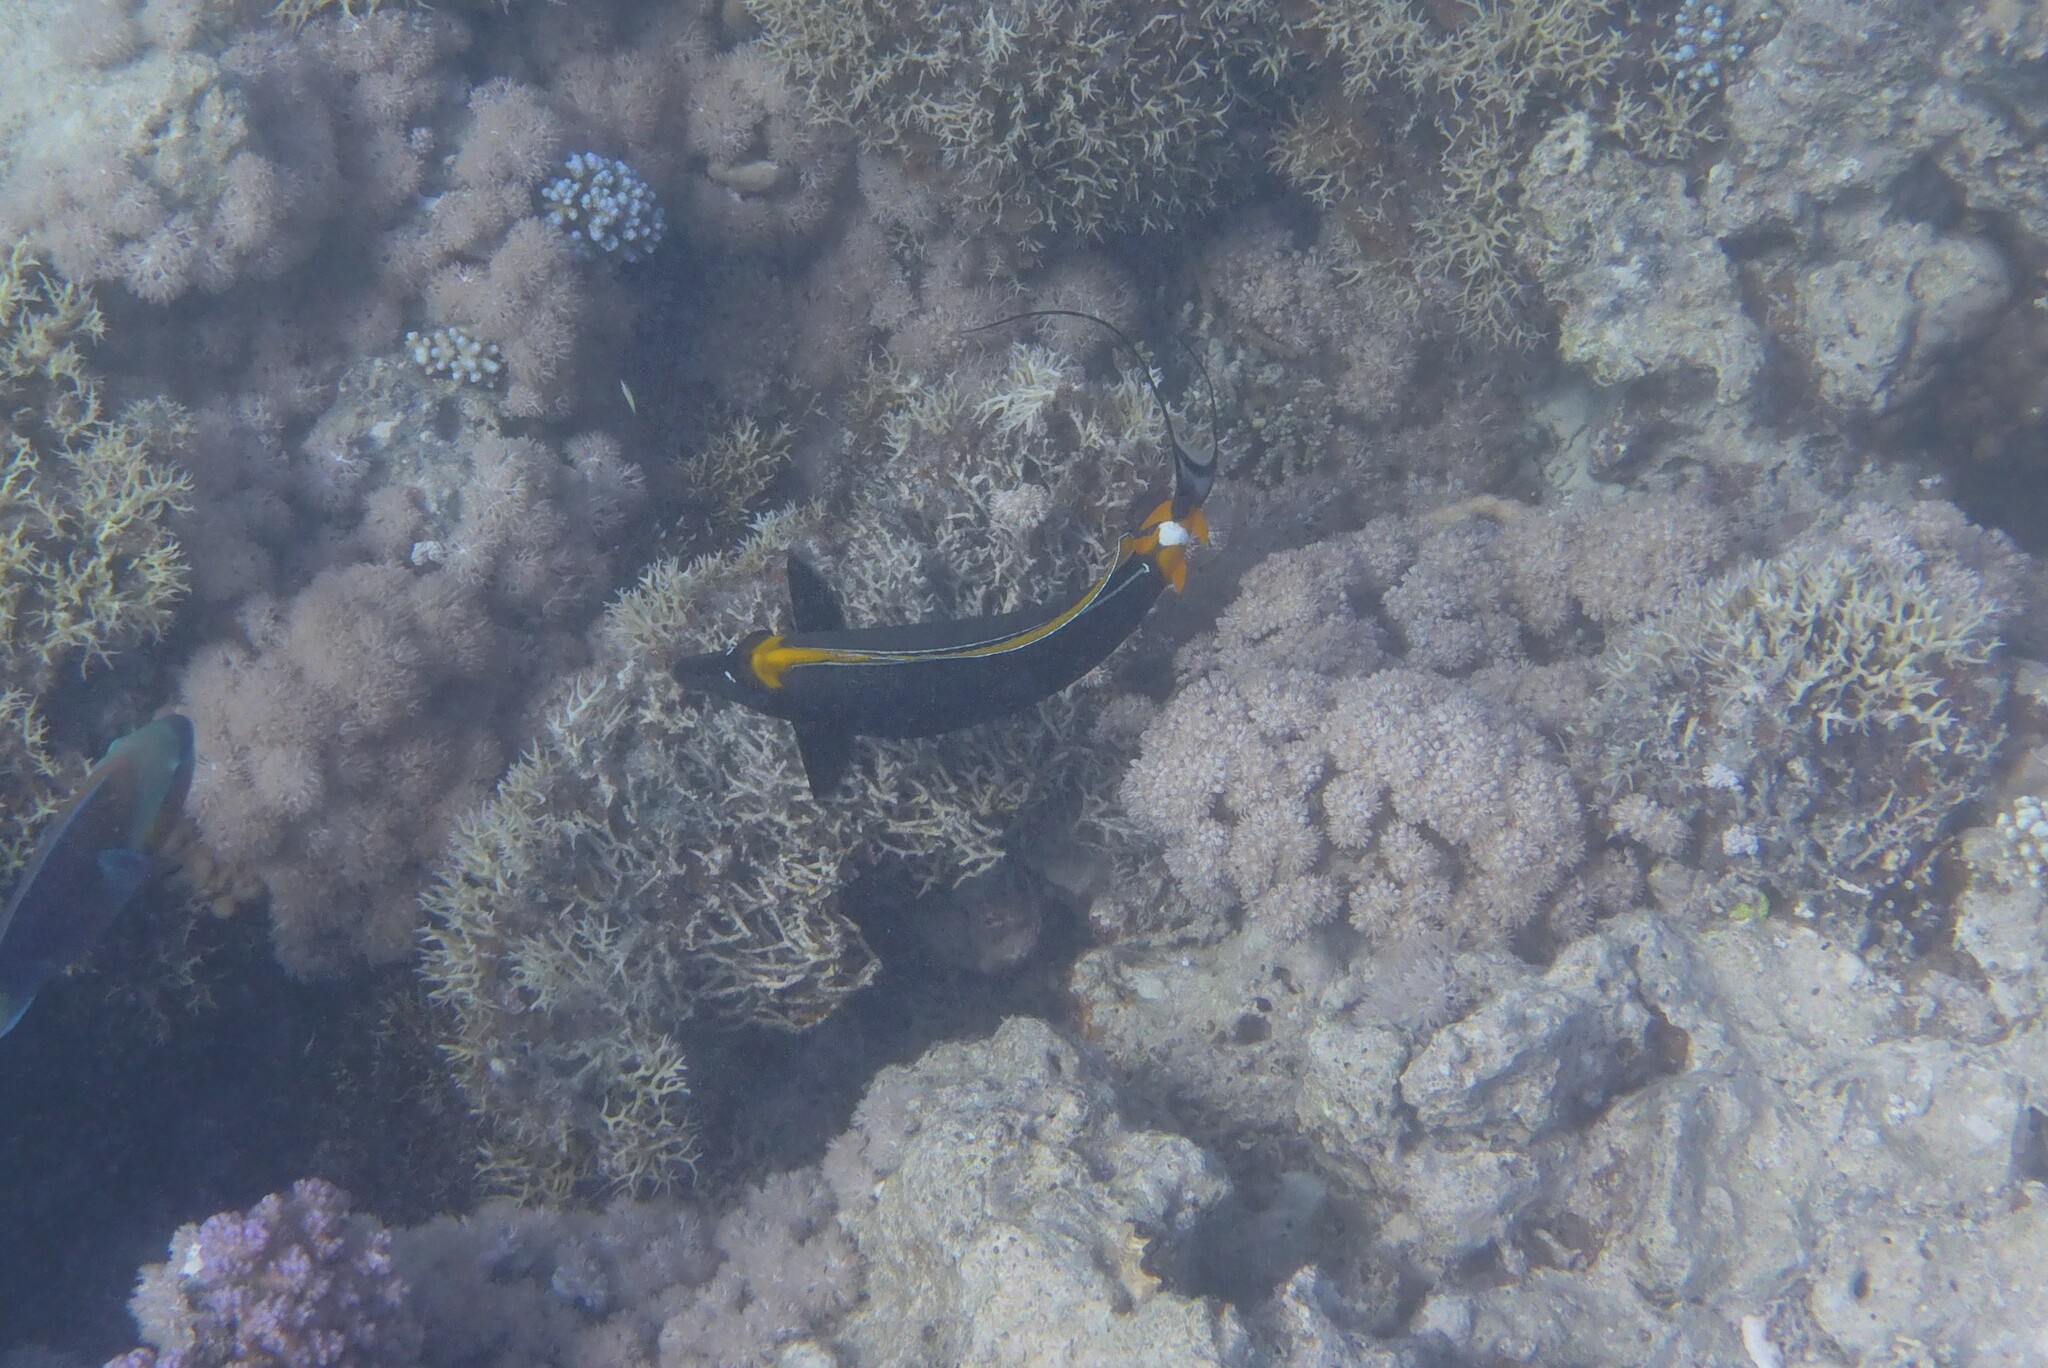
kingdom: Animalia
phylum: Chordata
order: Perciformes
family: Acanthuridae
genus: Naso
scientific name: Naso elegans
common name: Orangespine unicornfish
